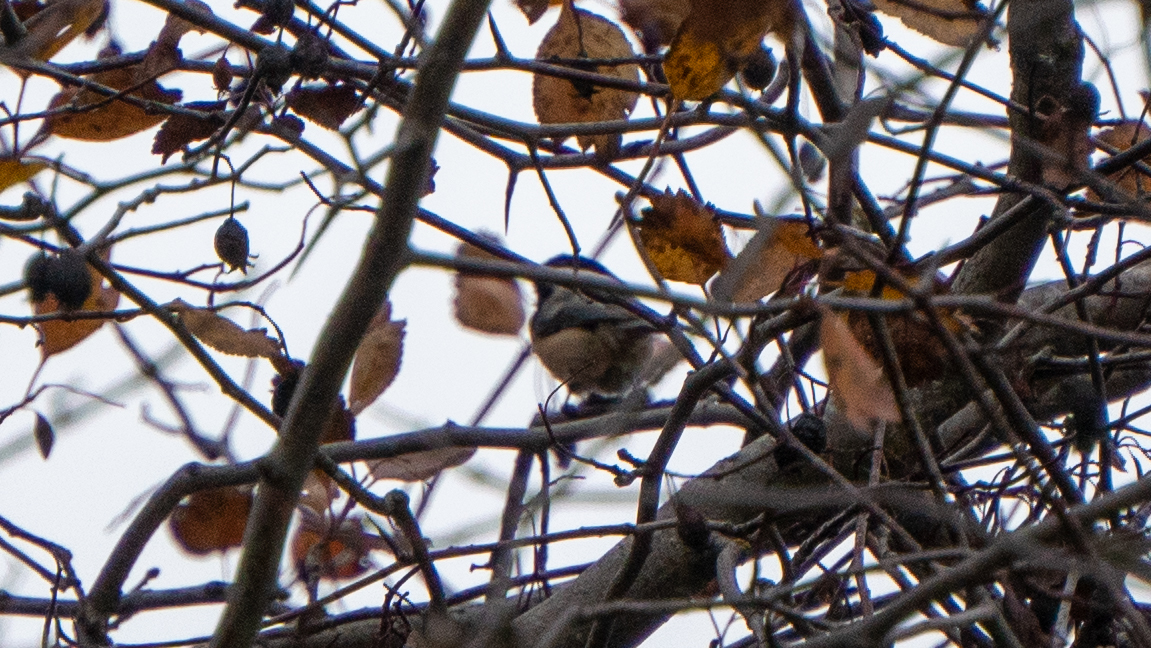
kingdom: Animalia
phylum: Chordata
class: Aves
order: Passeriformes
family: Paridae
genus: Poecile
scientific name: Poecile atricapillus
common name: Black-capped chickadee
